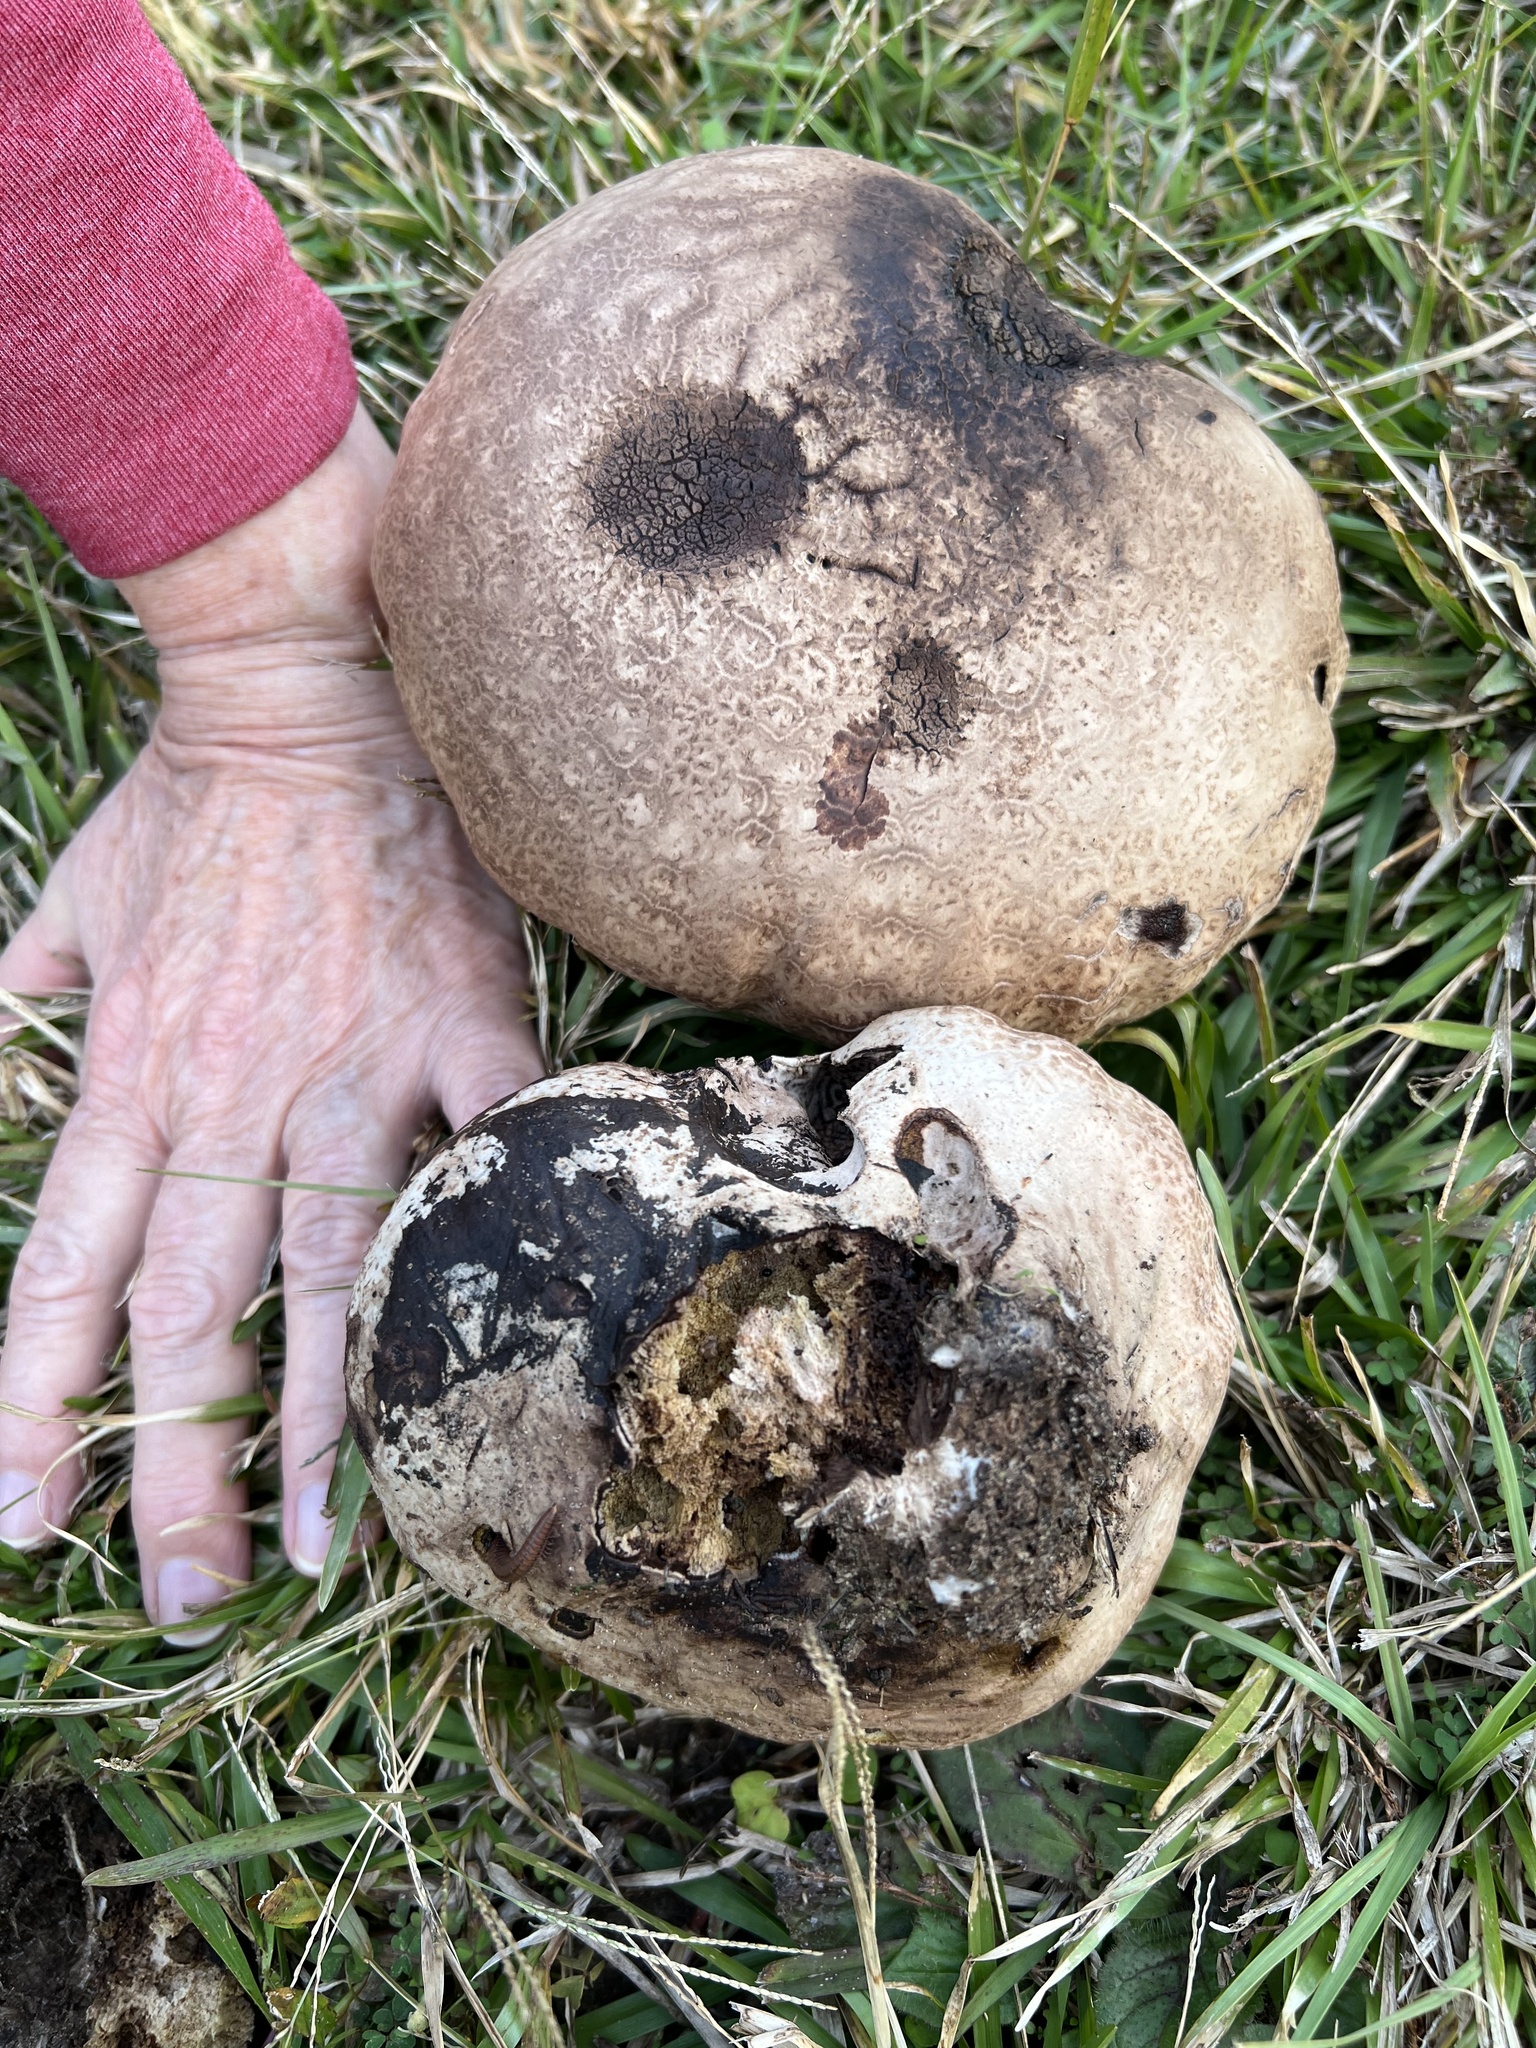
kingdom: Fungi
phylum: Basidiomycota
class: Agaricomycetes
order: Agaricales
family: Lycoperdaceae
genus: Calvatia
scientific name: Calvatia cyathiformis
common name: Purple-spored puffball
